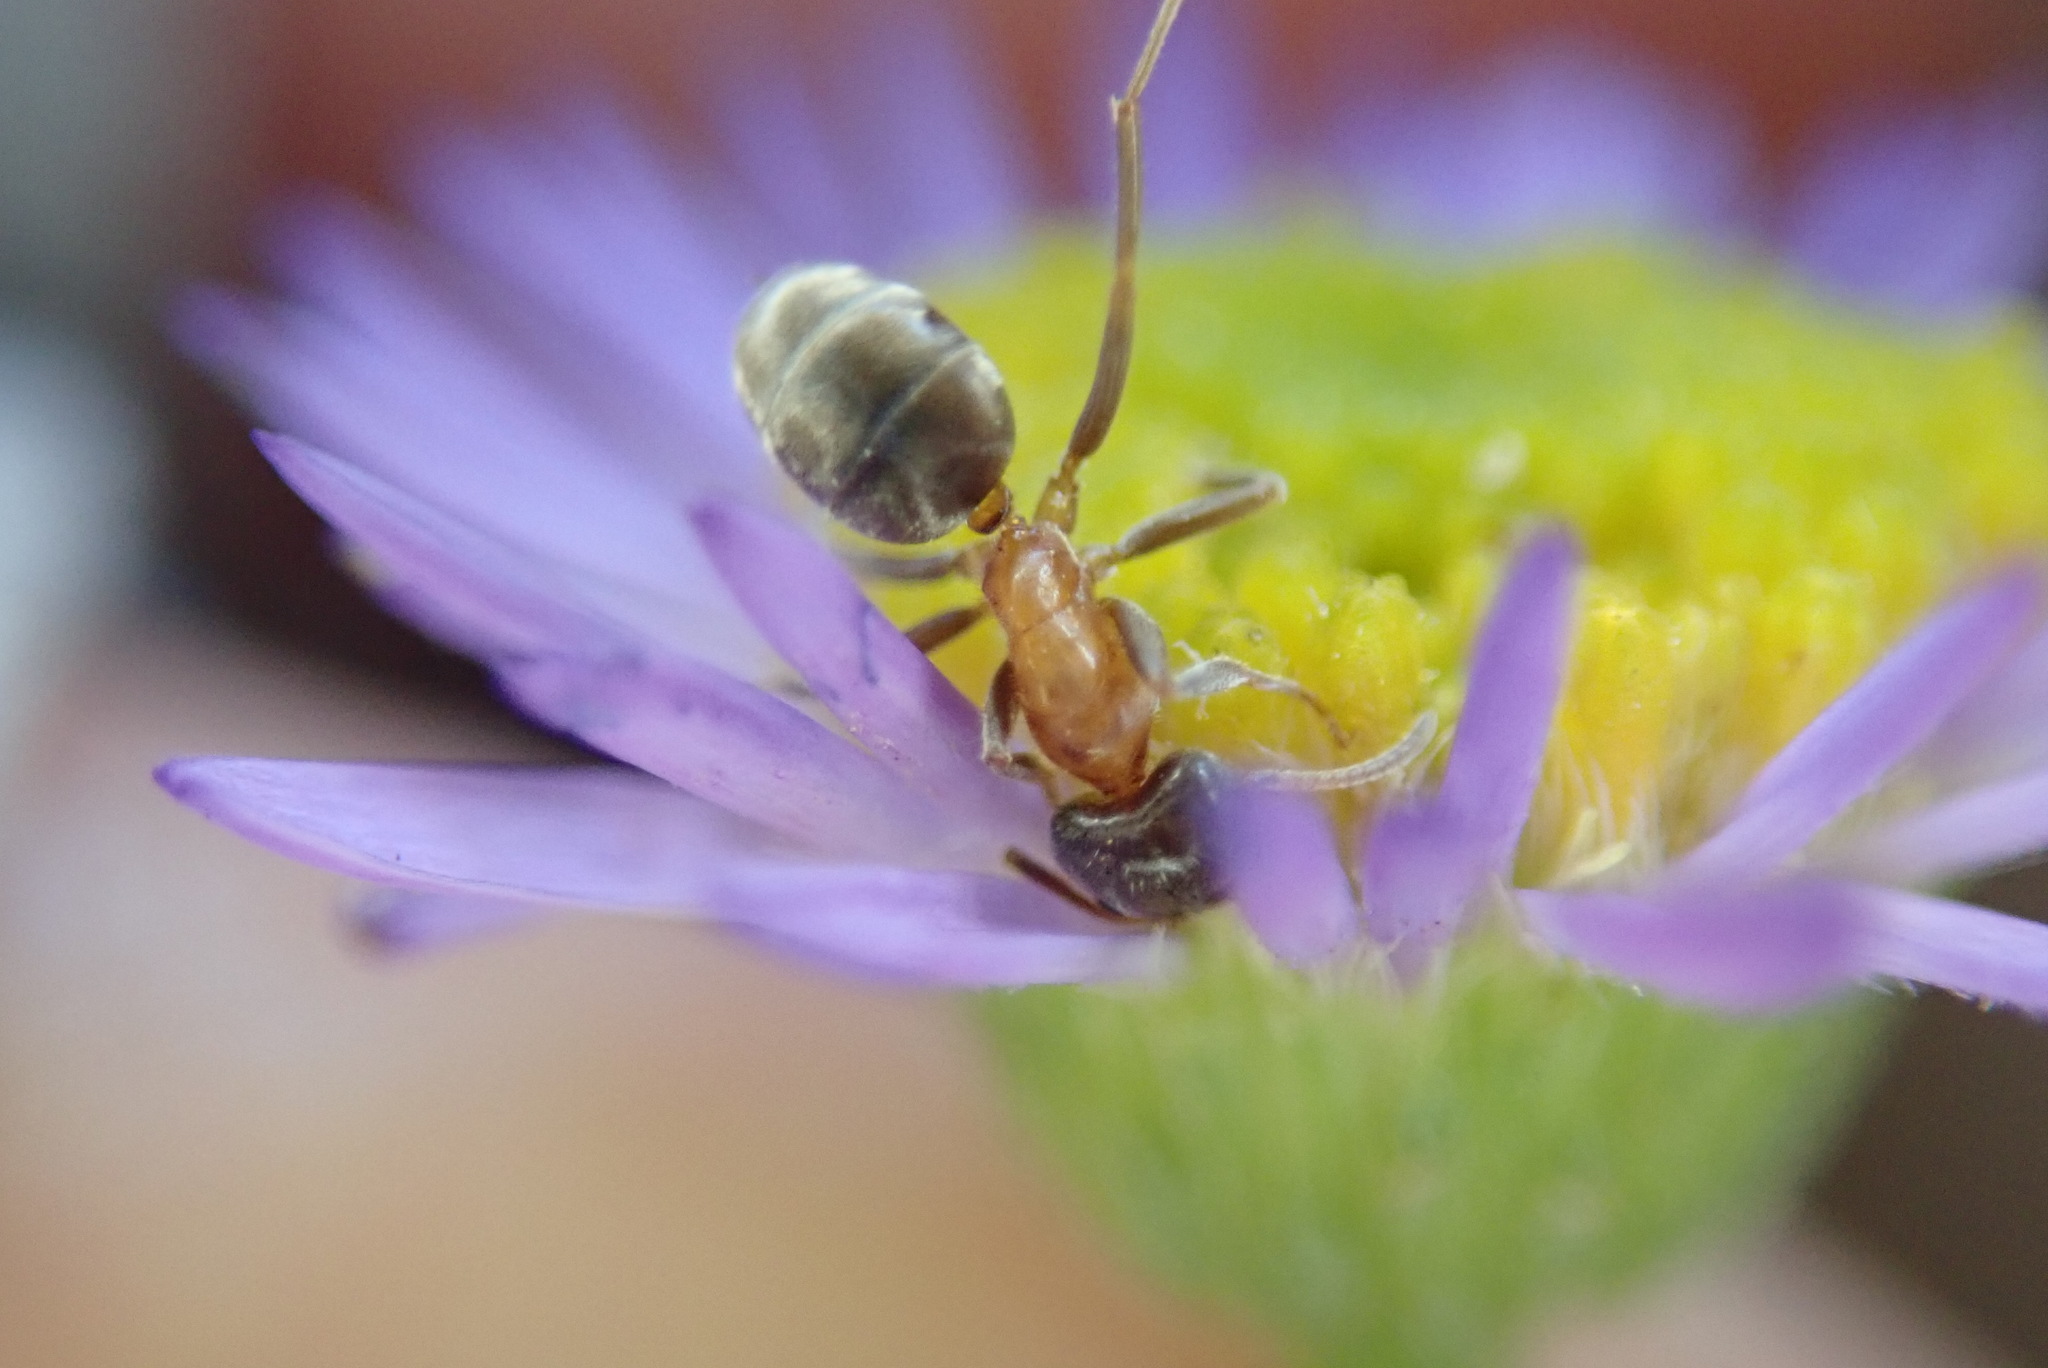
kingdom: Animalia
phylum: Arthropoda
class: Insecta
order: Hymenoptera
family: Formicidae
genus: Liometopum
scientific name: Liometopum occidentale
